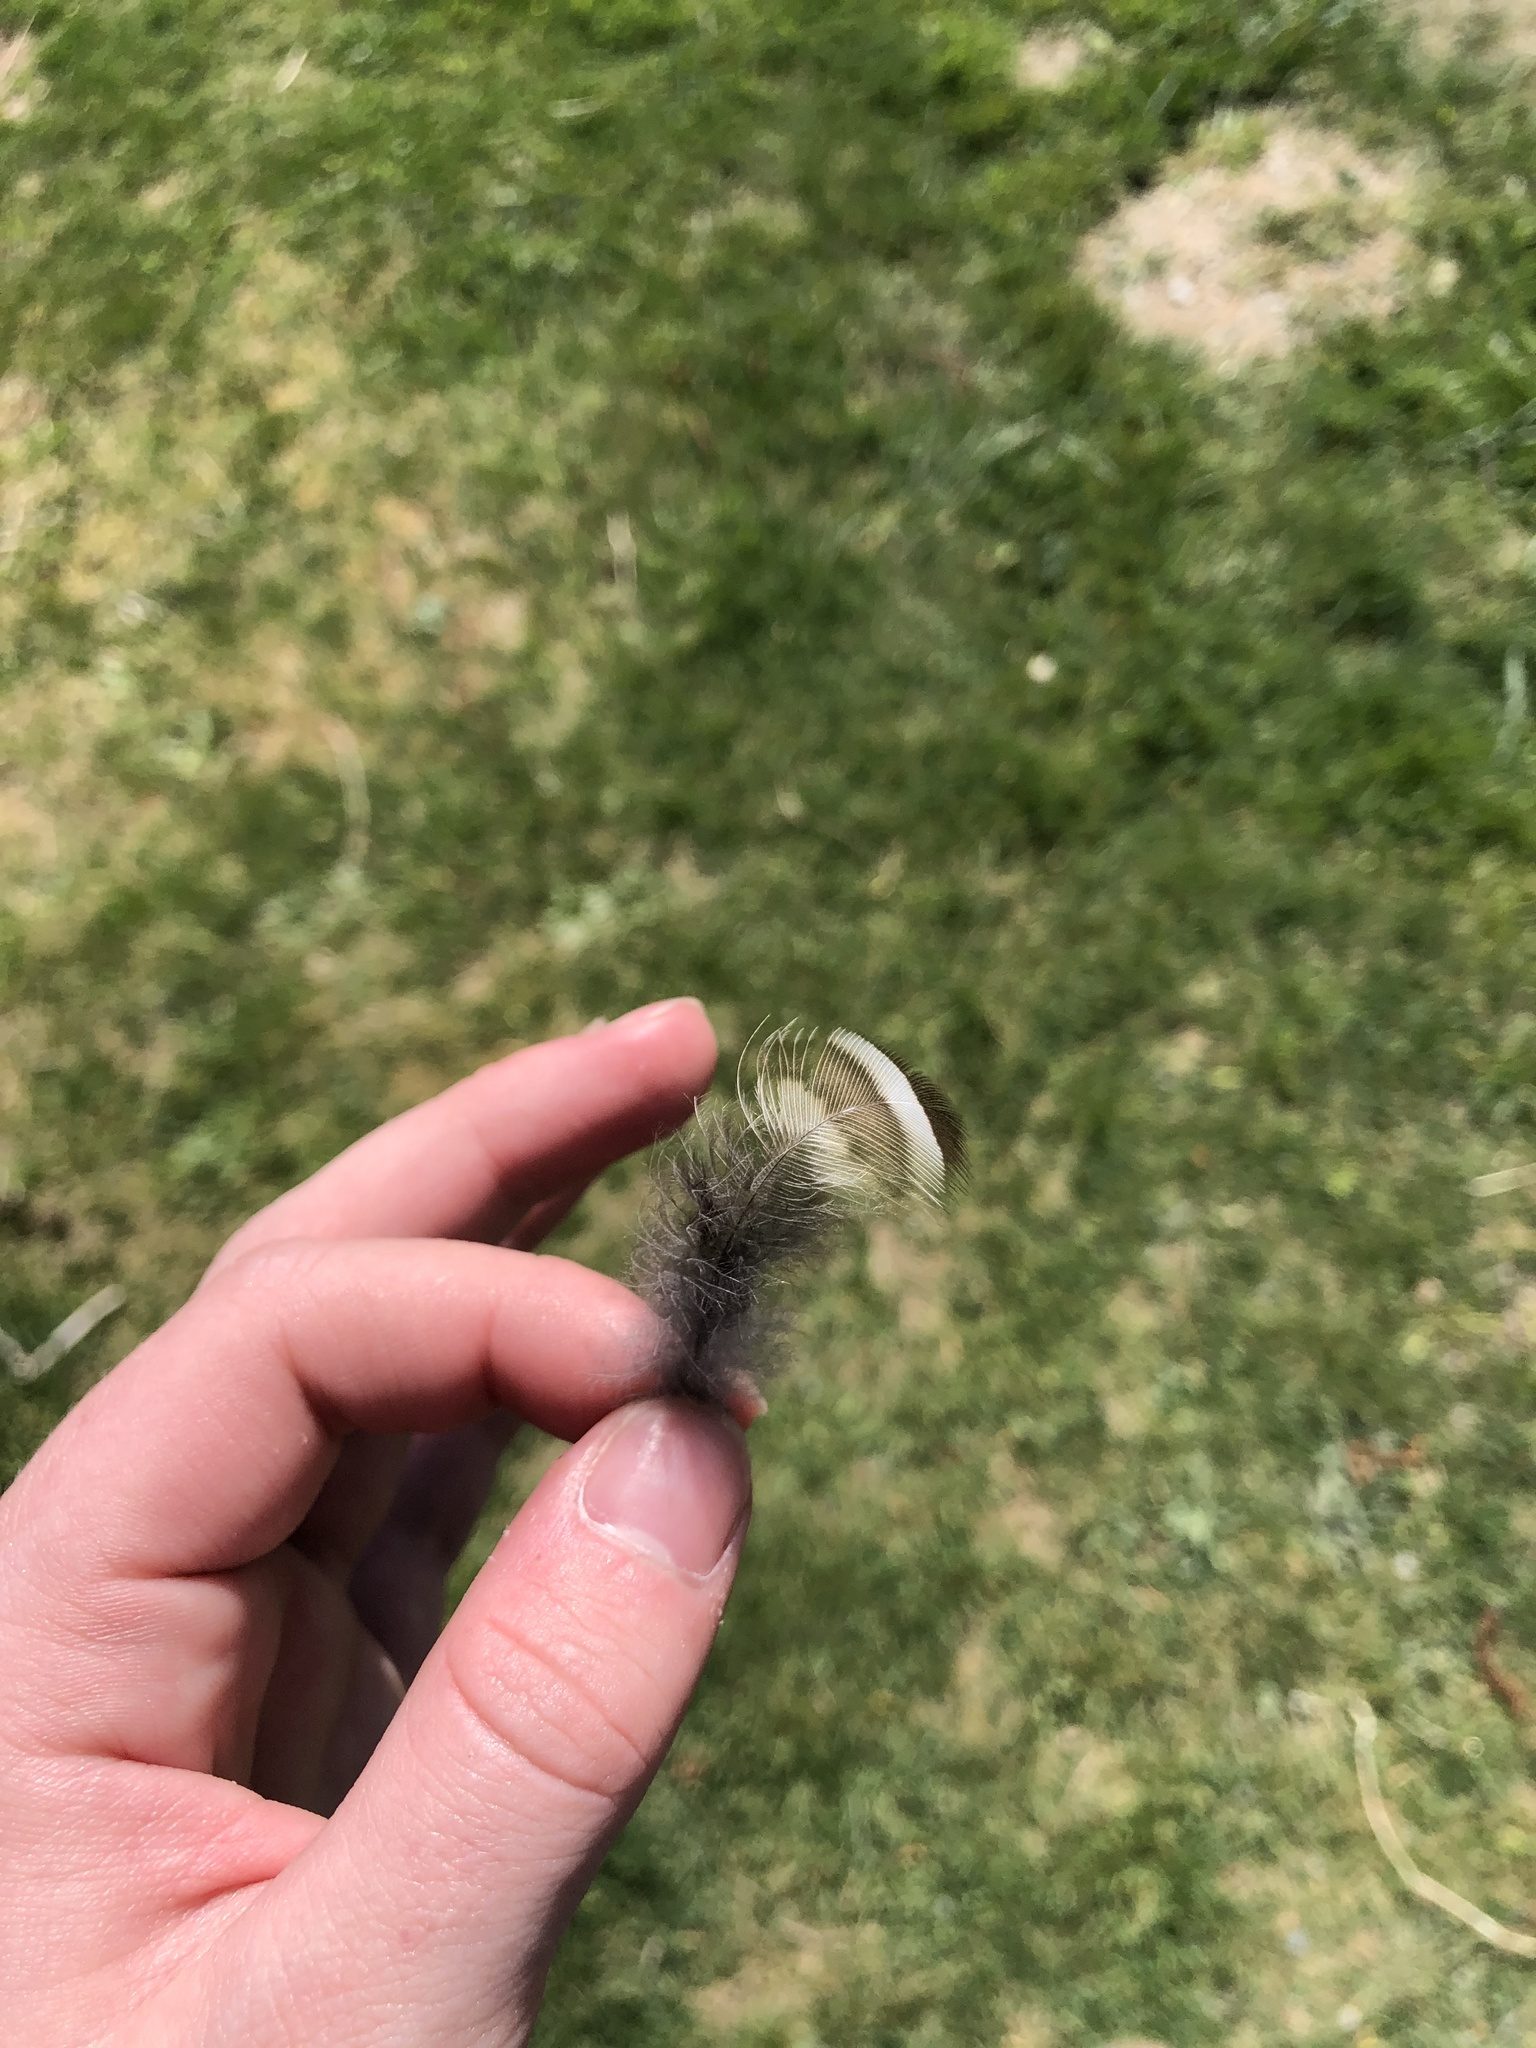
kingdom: Animalia
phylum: Chordata
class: Aves
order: Strigiformes
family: Strigidae
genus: Strix
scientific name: Strix varia
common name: Barred owl
